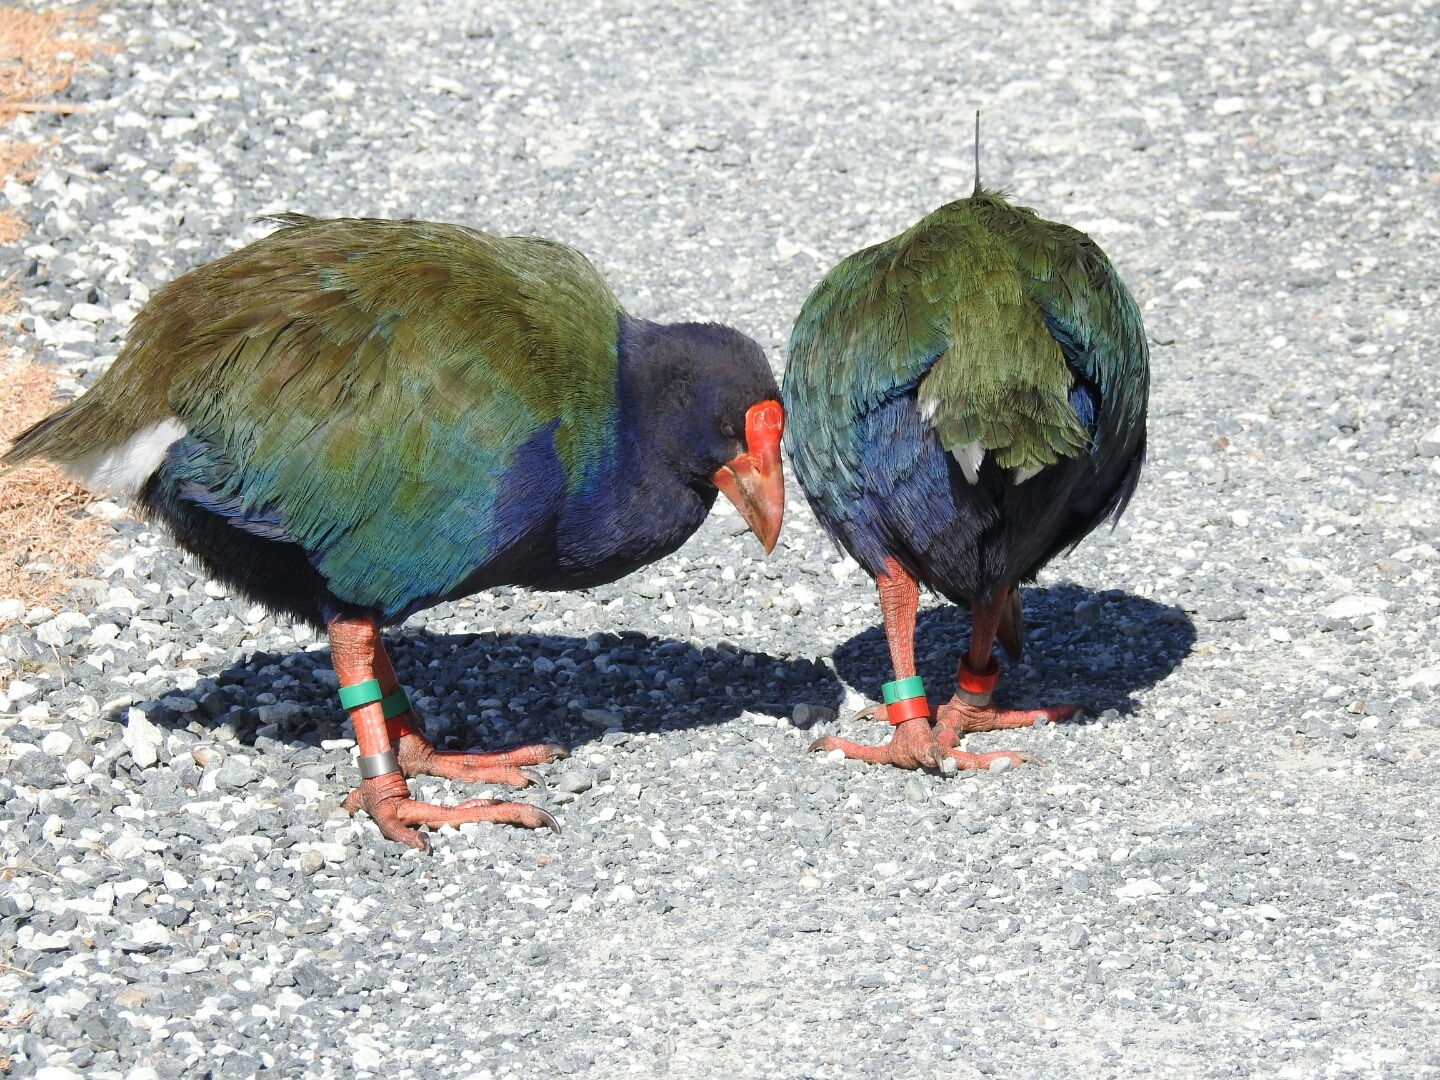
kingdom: Animalia
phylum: Chordata
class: Aves
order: Gruiformes
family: Rallidae
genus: Porphyrio
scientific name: Porphyrio hochstetteri
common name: South island takahe
